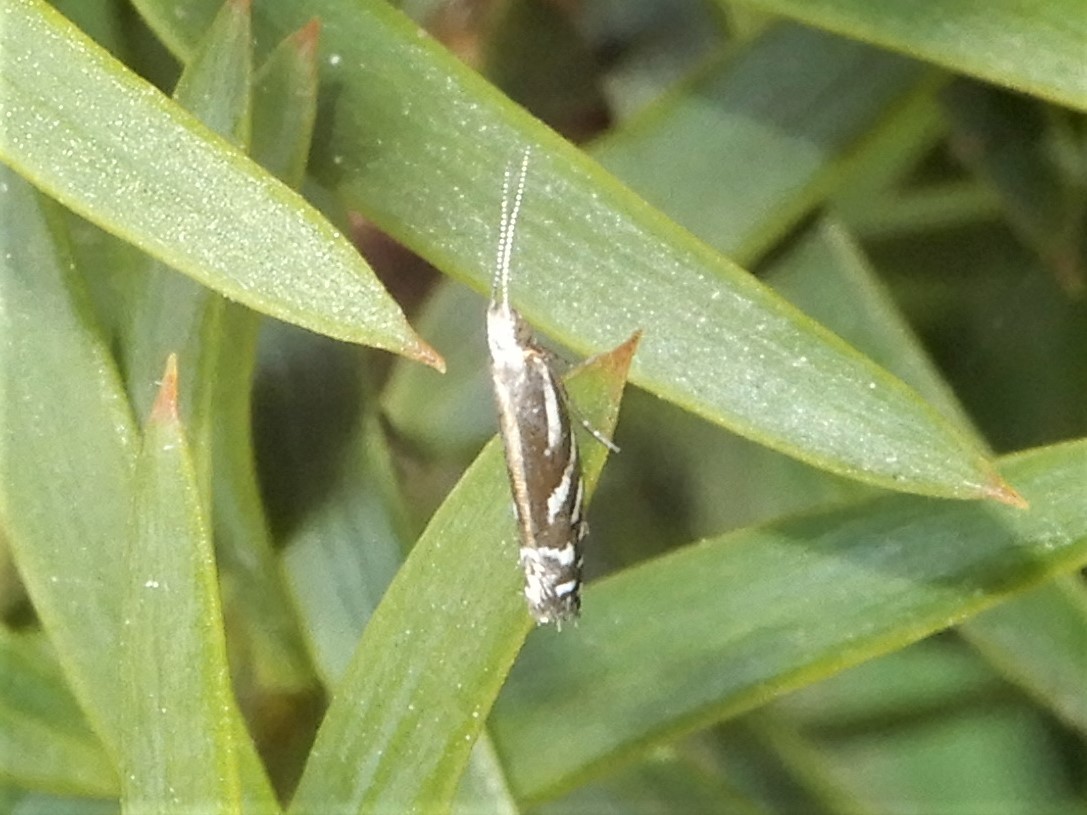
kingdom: Animalia
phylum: Arthropoda
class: Insecta
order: Lepidoptera
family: Glyphipterigidae
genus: Chrysorthenches
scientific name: Chrysorthenches glypharcha
